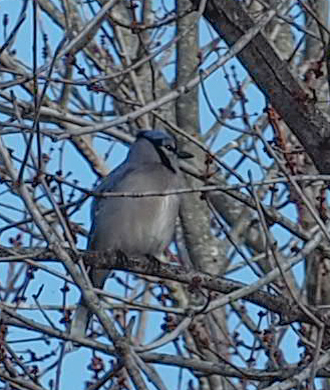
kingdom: Animalia
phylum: Chordata
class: Aves
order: Passeriformes
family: Corvidae
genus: Cyanocitta
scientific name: Cyanocitta cristata
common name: Blue jay
